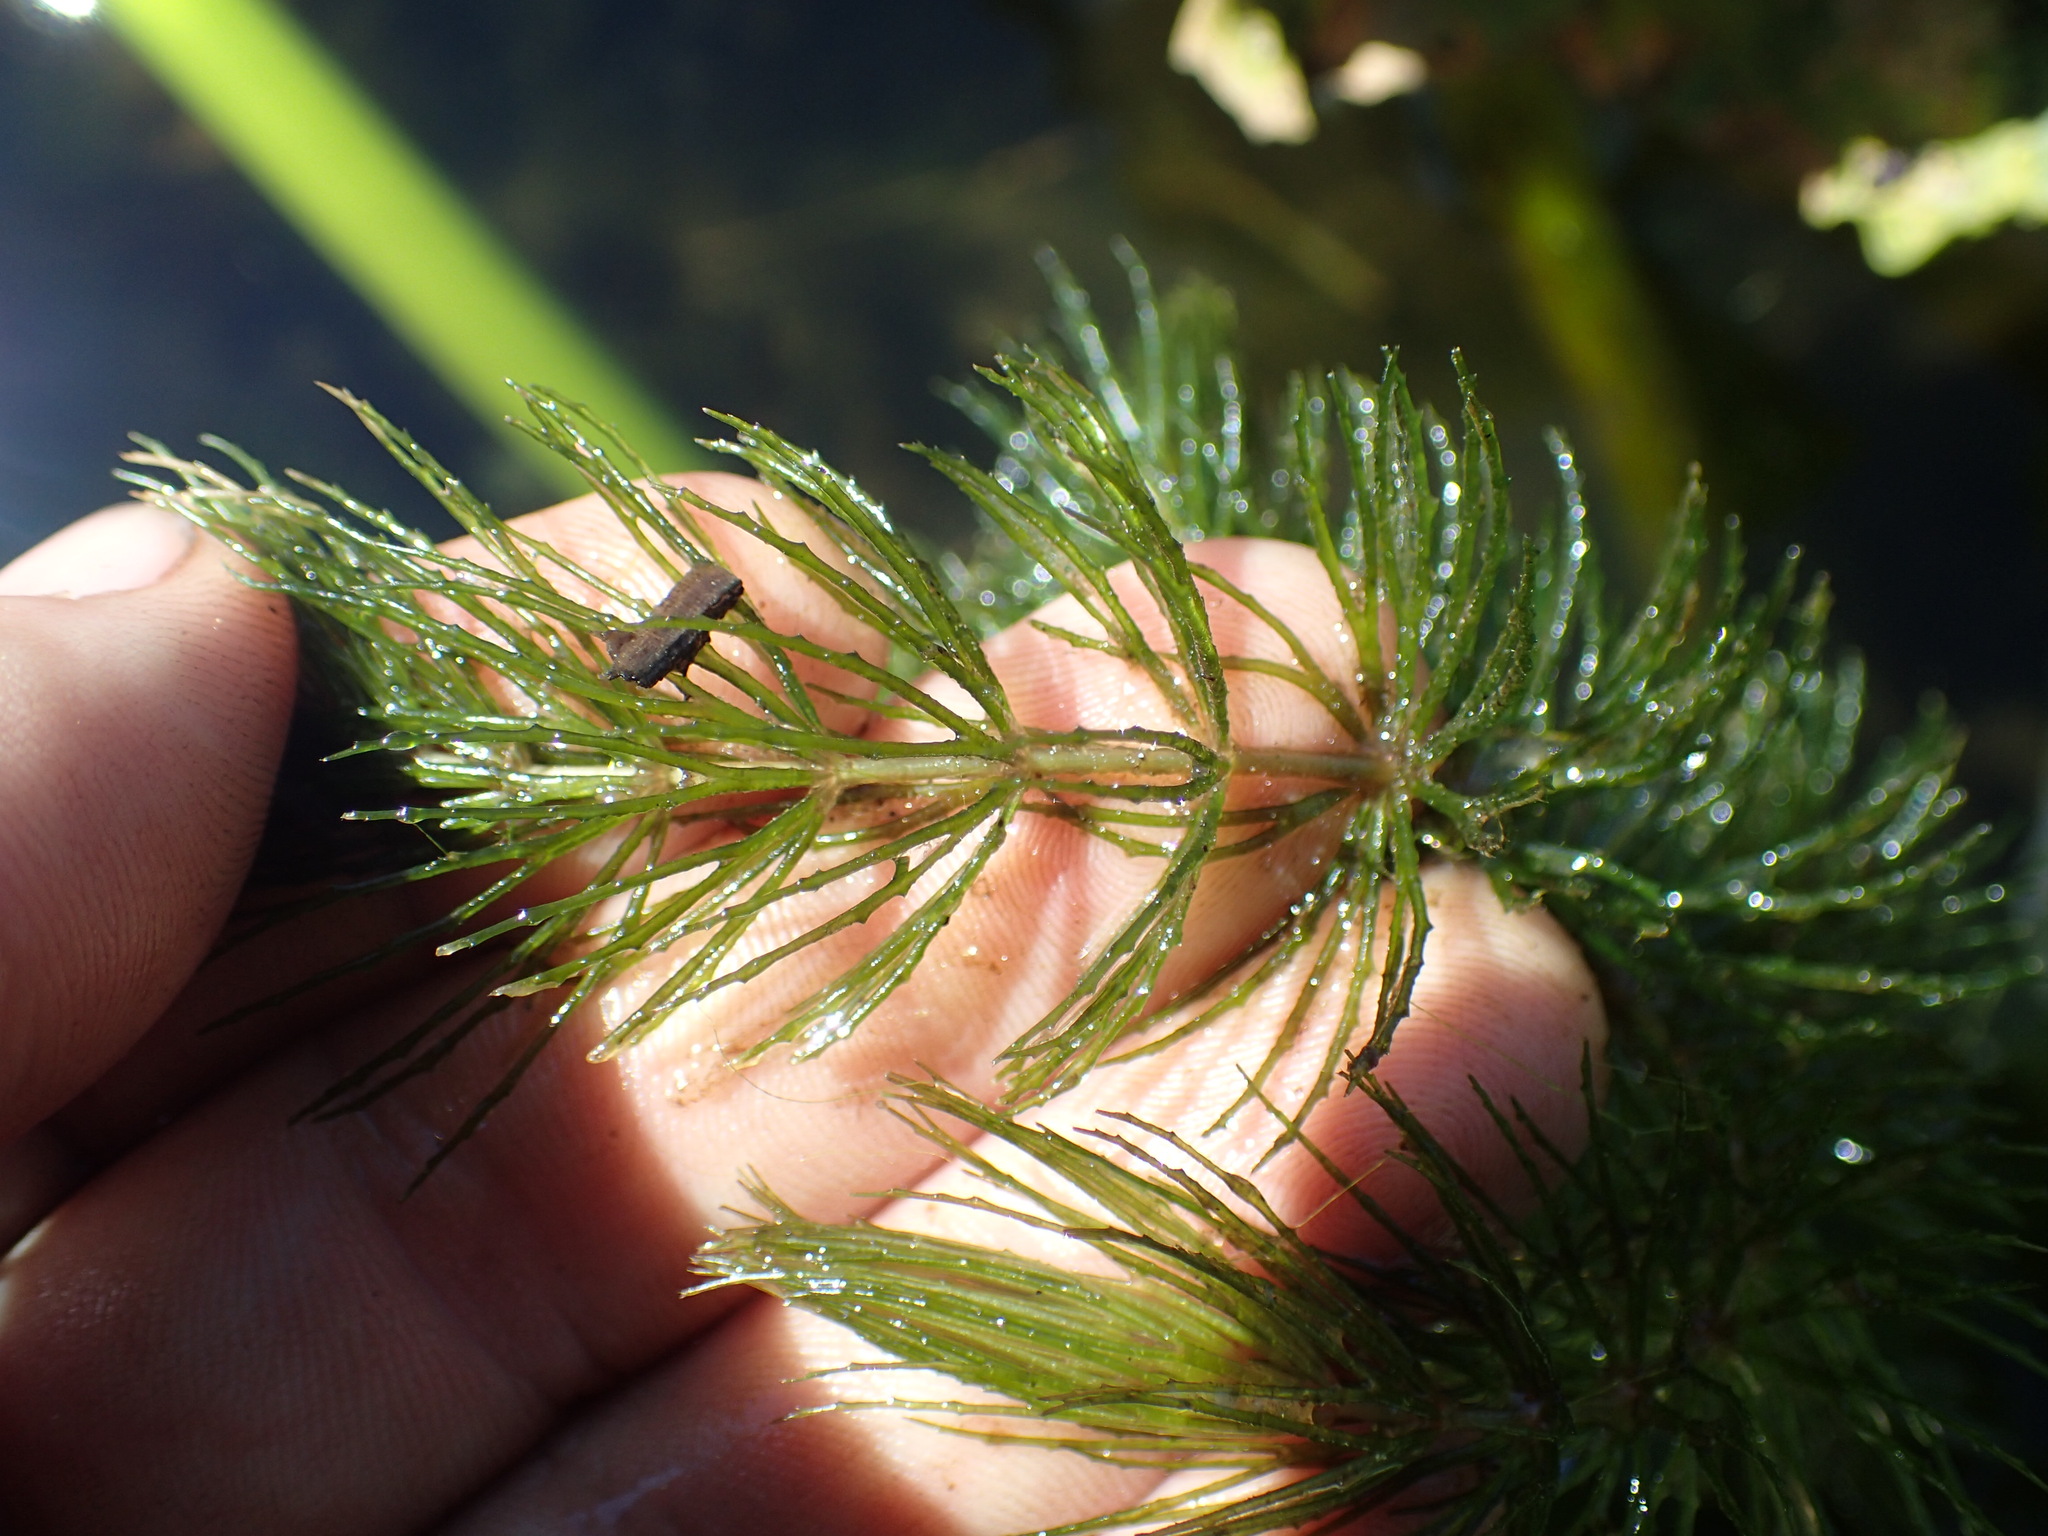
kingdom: Plantae
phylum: Tracheophyta
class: Magnoliopsida
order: Ceratophyllales
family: Ceratophyllaceae
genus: Ceratophyllum
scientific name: Ceratophyllum demersum
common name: Rigid hornwort
